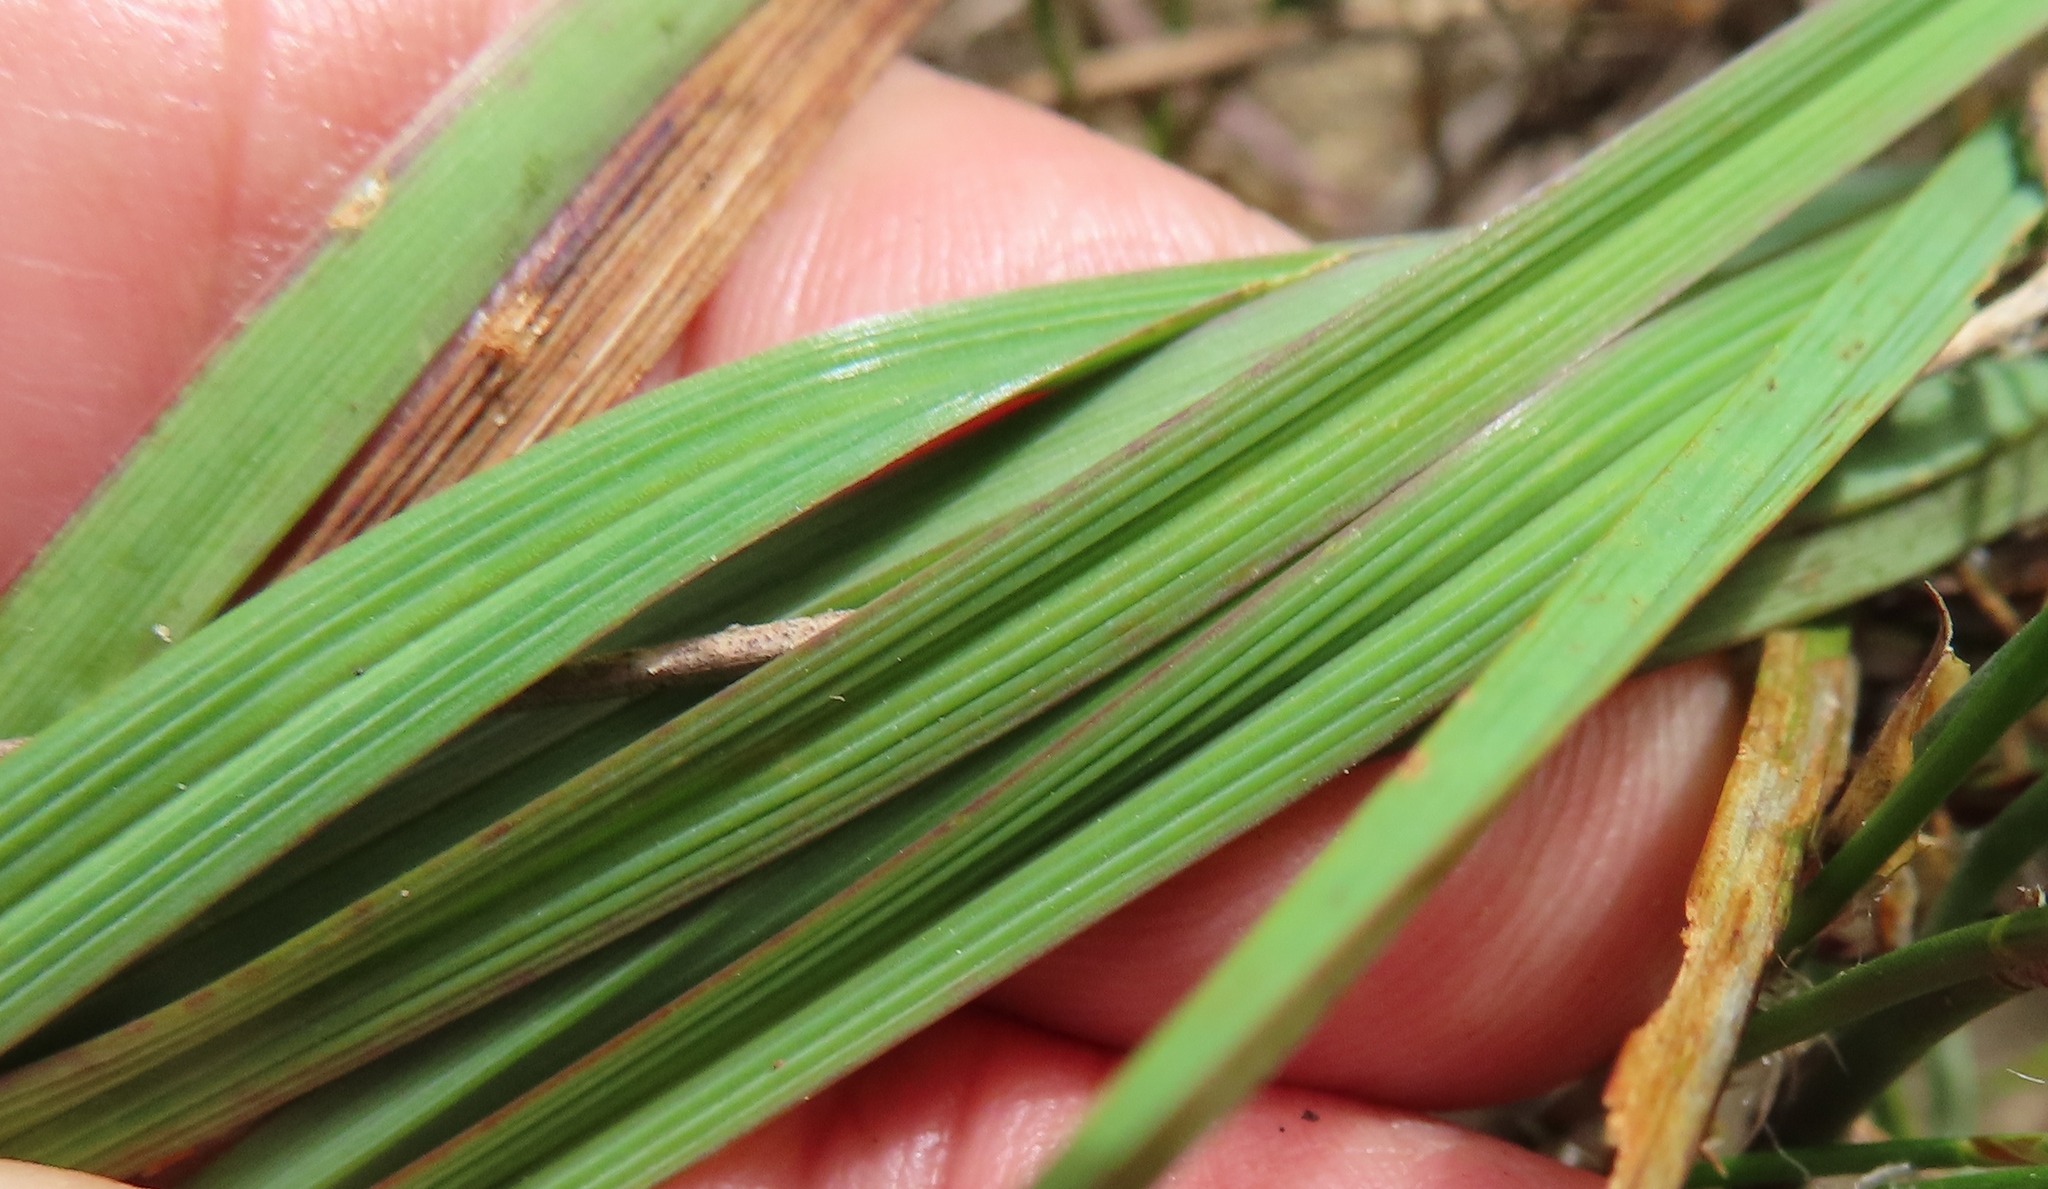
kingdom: Plantae
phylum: Tracheophyta
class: Liliopsida
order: Asparagales
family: Asphodelaceae
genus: Caesia
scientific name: Caesia contorta
